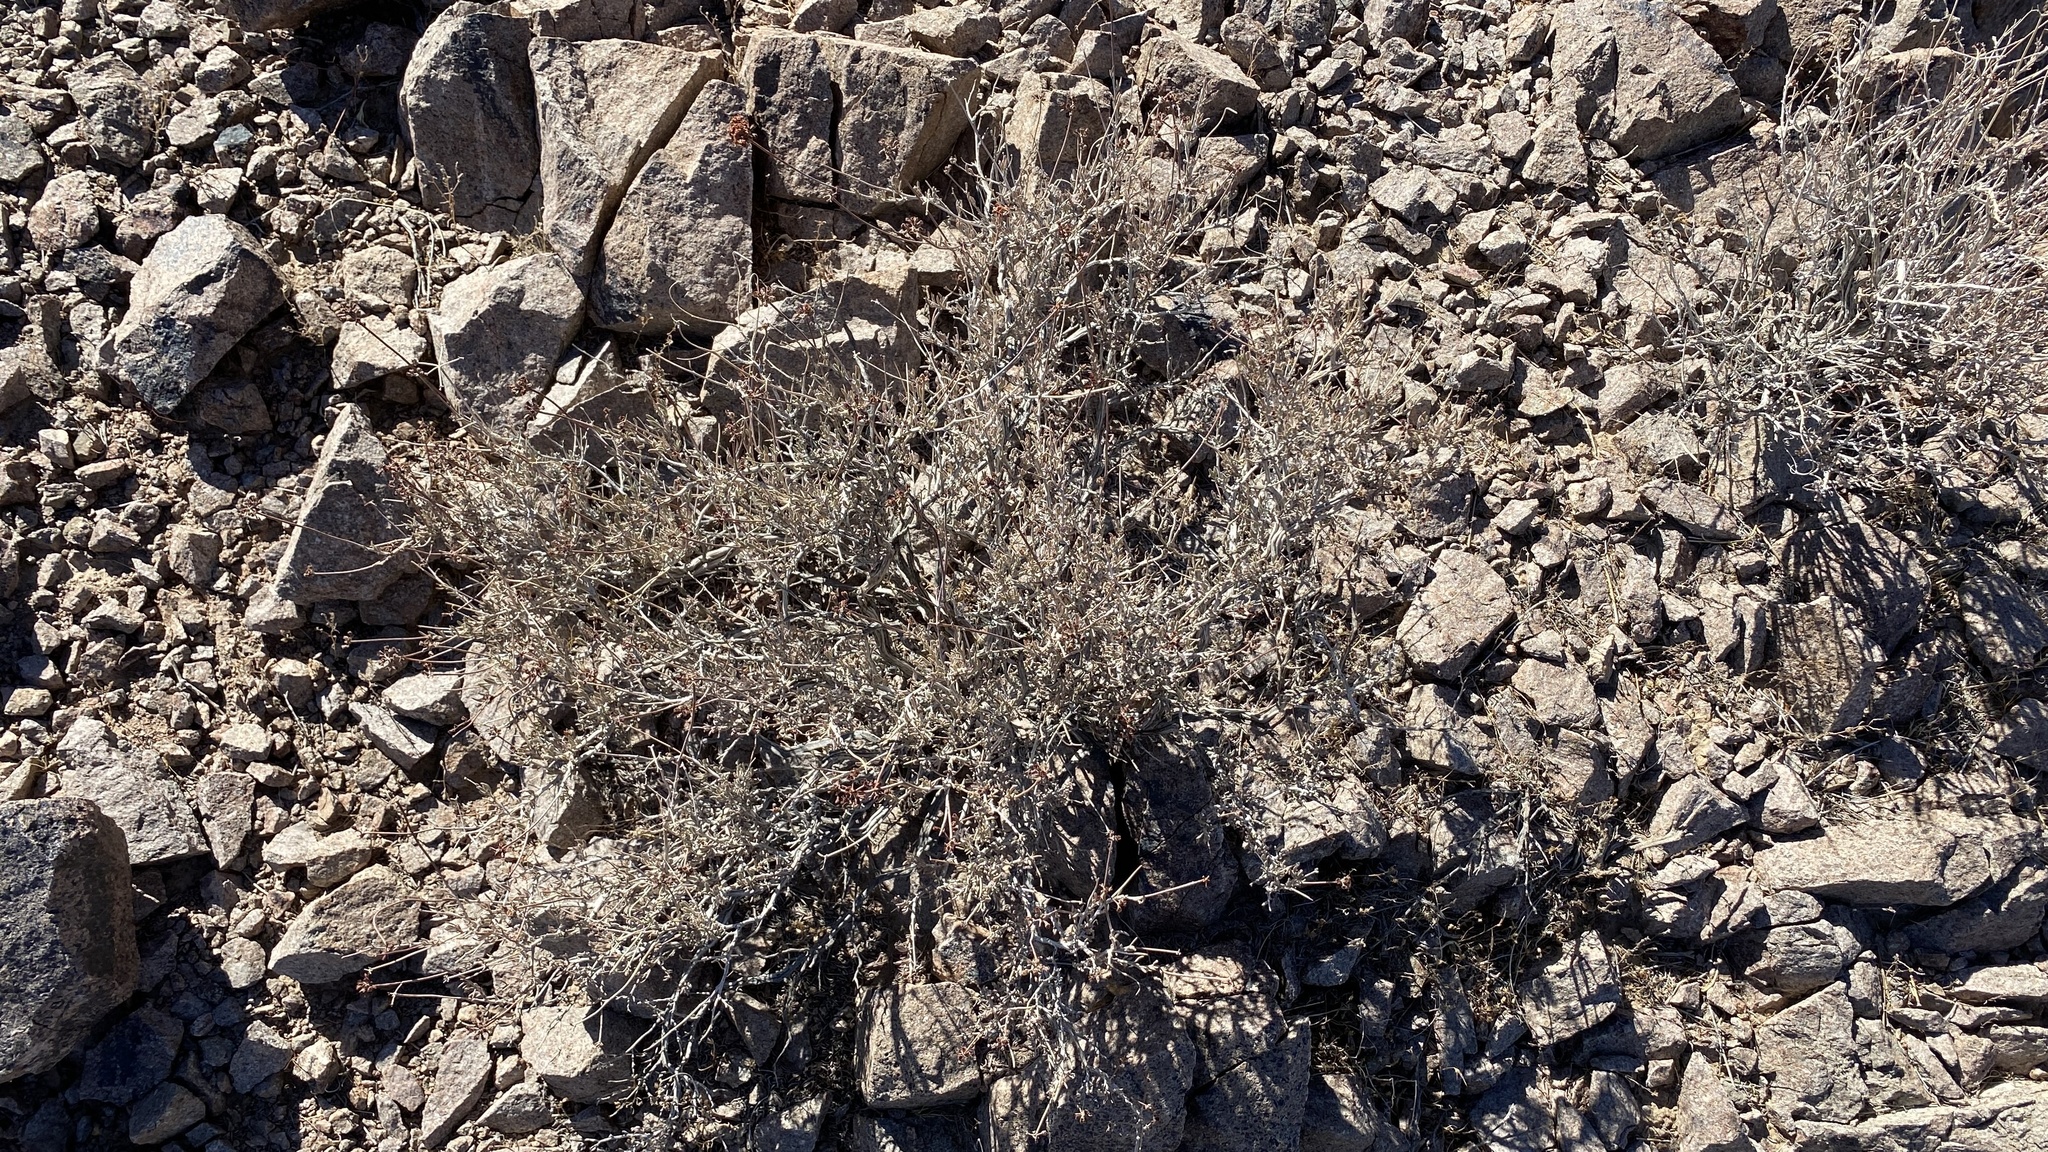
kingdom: Plantae
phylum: Tracheophyta
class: Magnoliopsida
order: Caryophyllales
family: Polygonaceae
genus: Eriogonum
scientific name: Eriogonum fasciculatum
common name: California wild buckwheat
